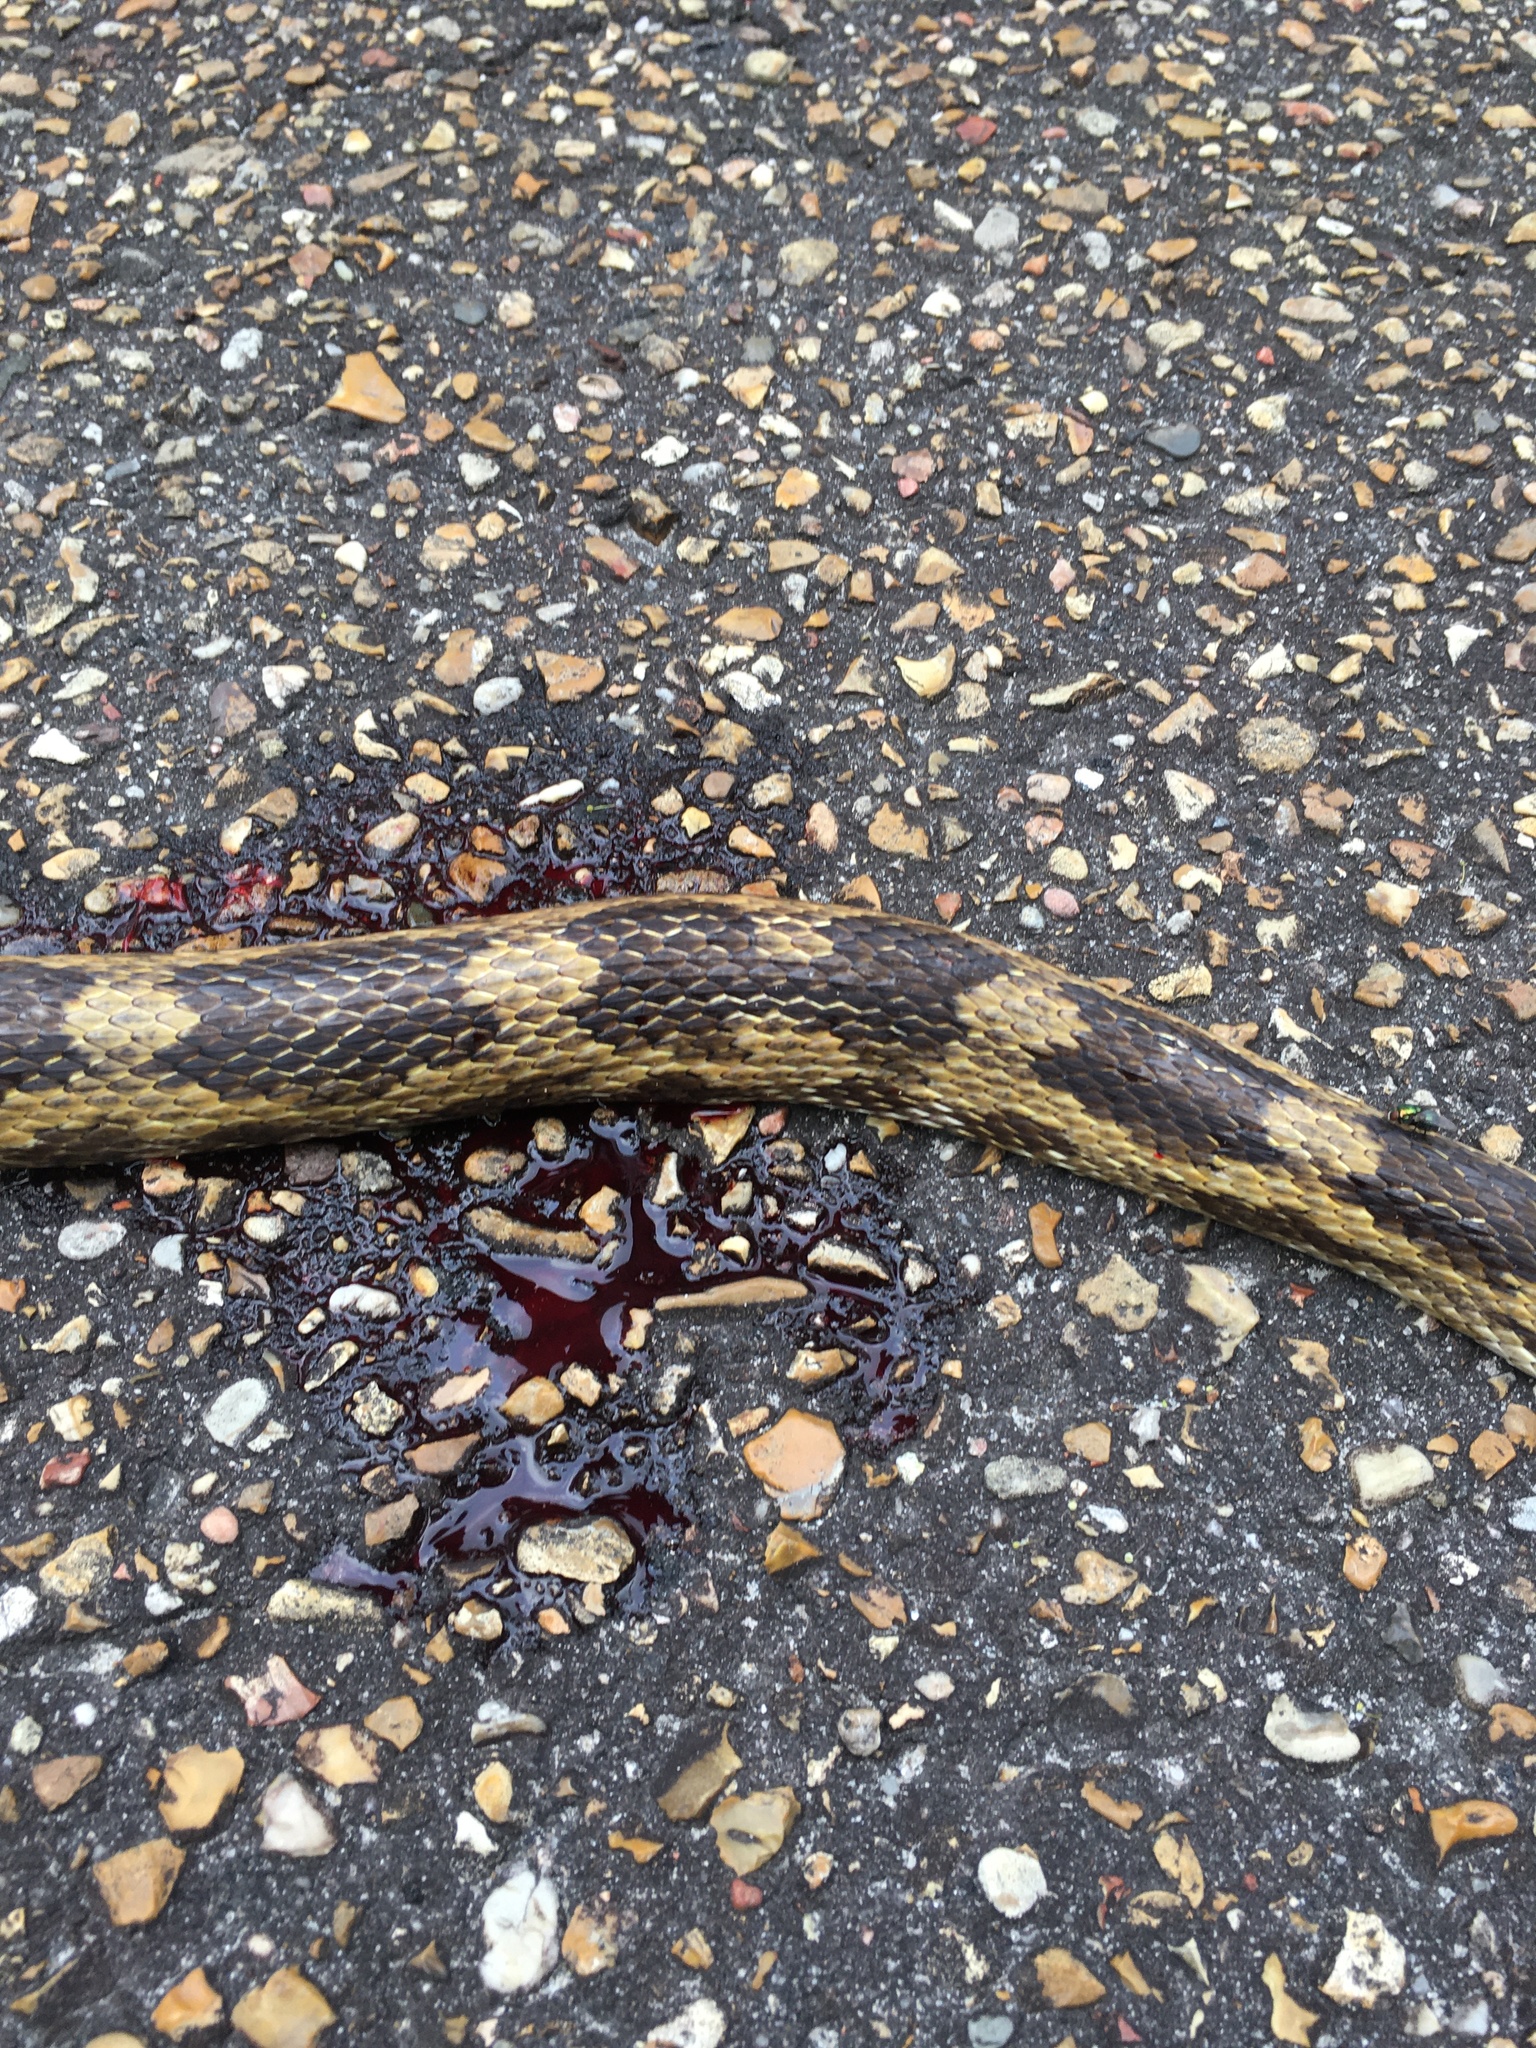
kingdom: Animalia
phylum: Chordata
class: Squamata
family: Colubridae
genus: Pantherophis
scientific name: Pantherophis spiloides
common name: Gray rat snake
